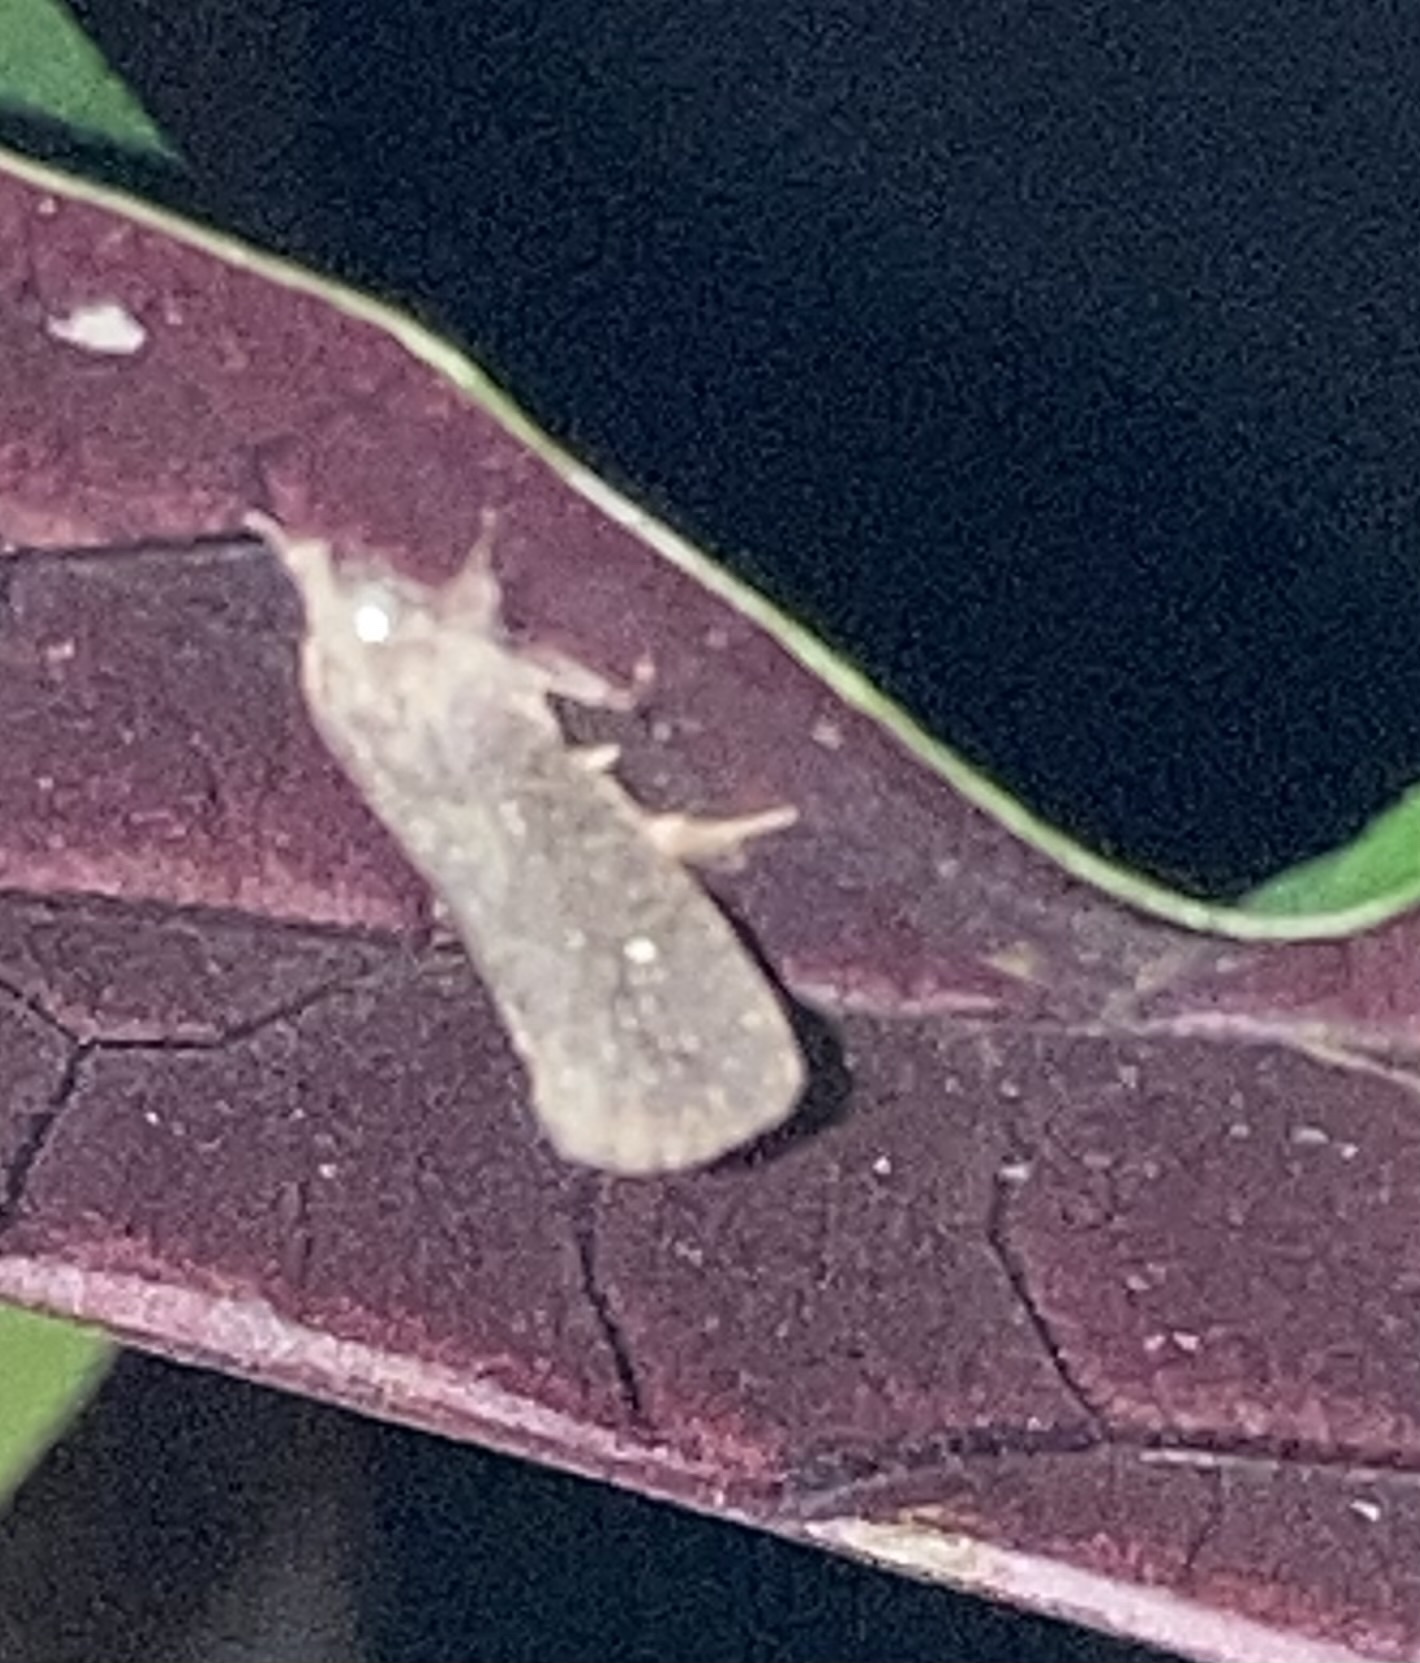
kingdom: Animalia
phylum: Arthropoda
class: Insecta
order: Lepidoptera
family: Tineidae
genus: Acrolophus
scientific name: Acrolophus walsinghami
